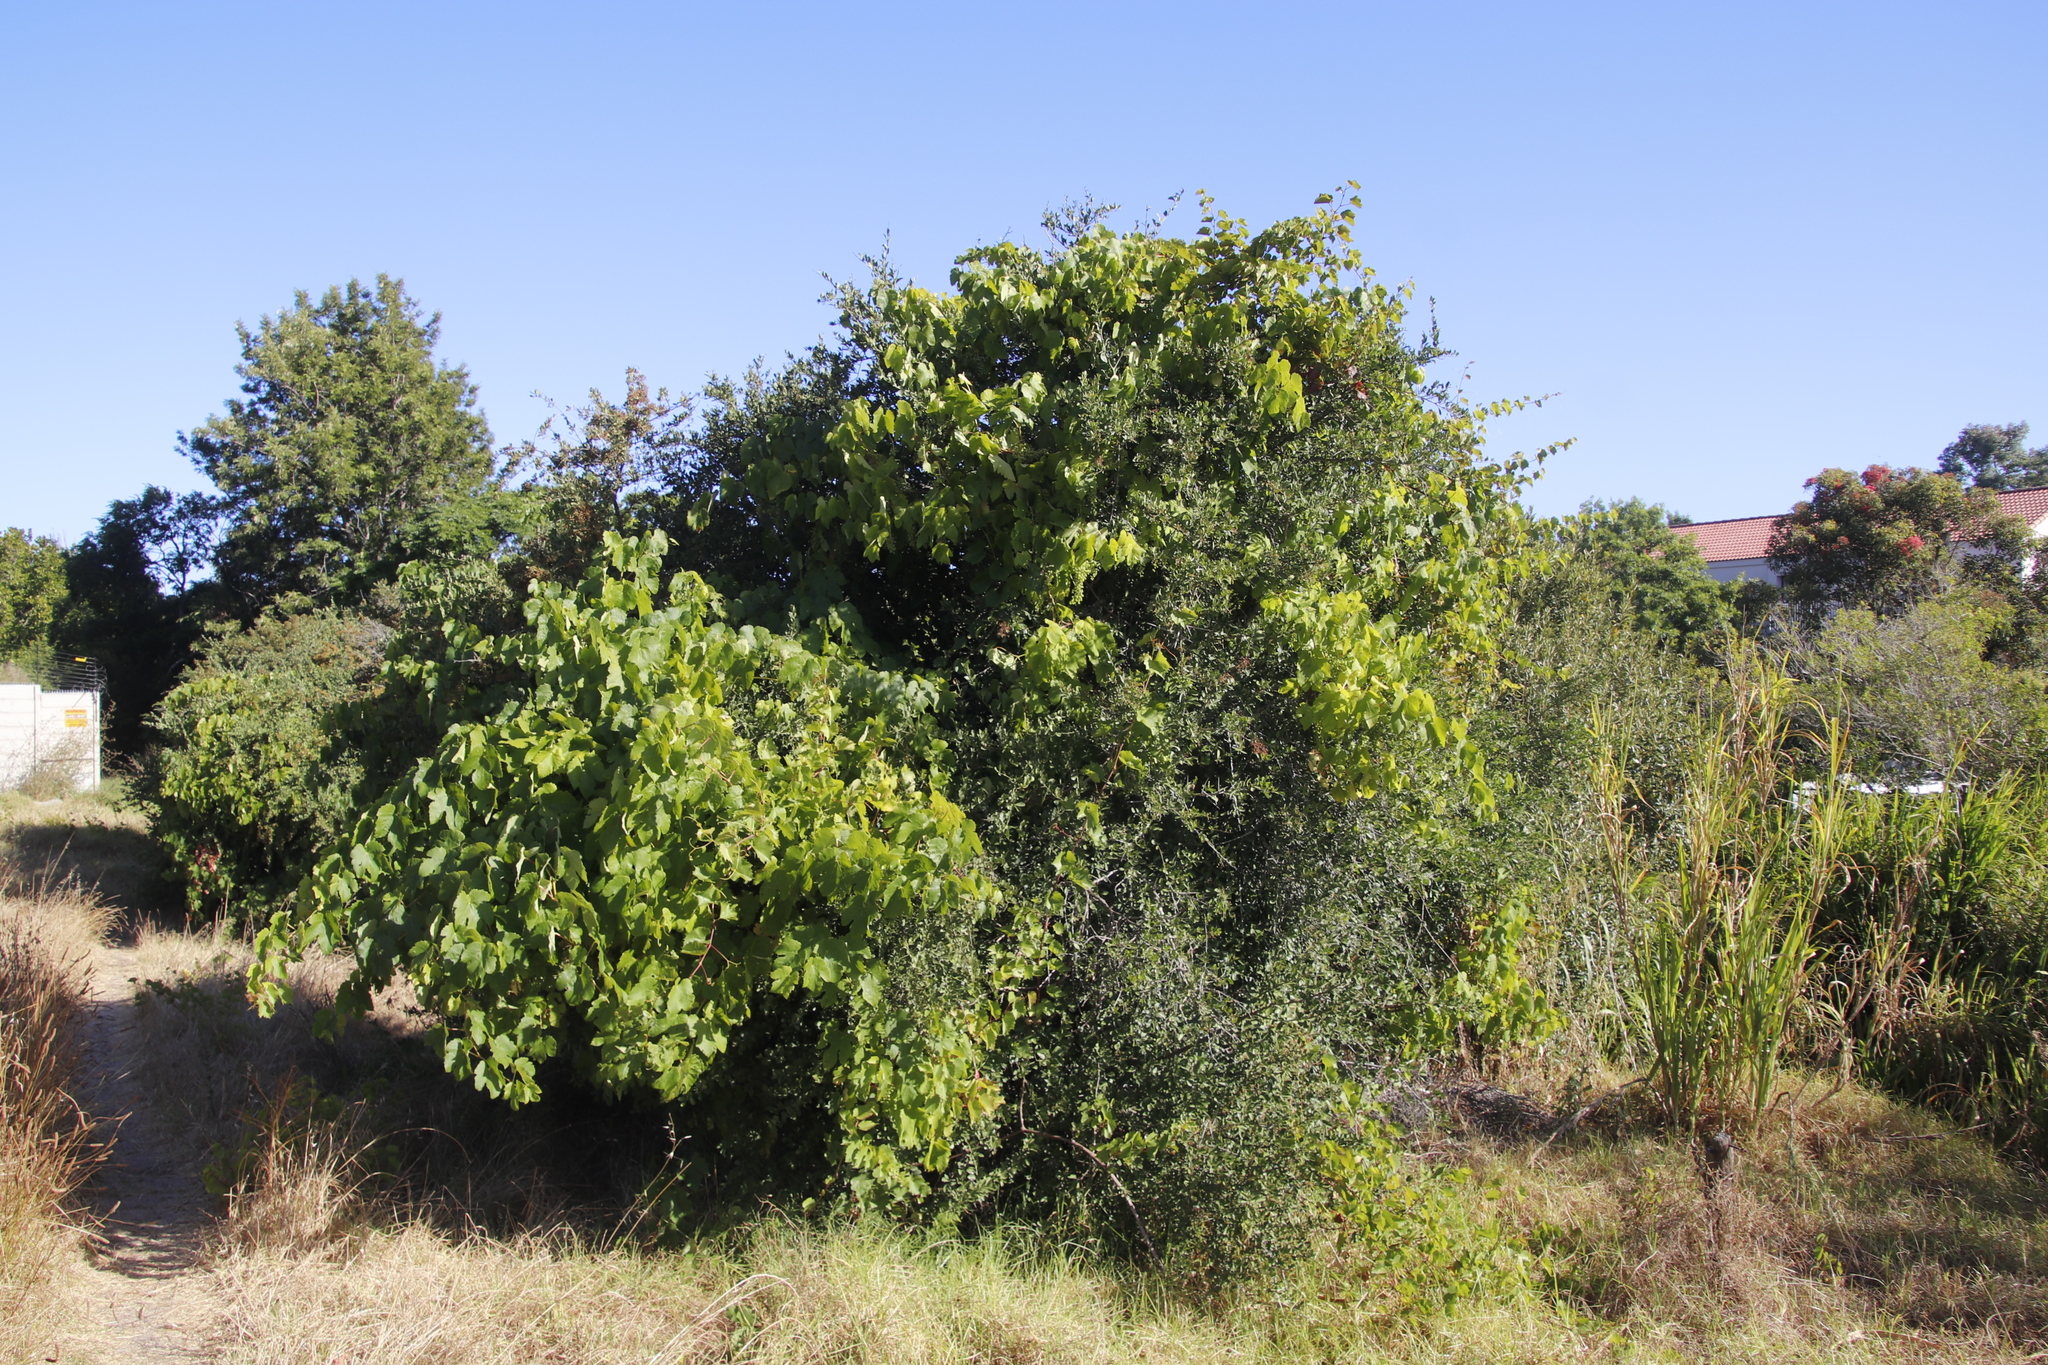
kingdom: Plantae
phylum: Tracheophyta
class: Magnoliopsida
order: Vitales
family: Vitaceae
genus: Vitis
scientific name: Vitis vinifera
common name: Grape-vine
